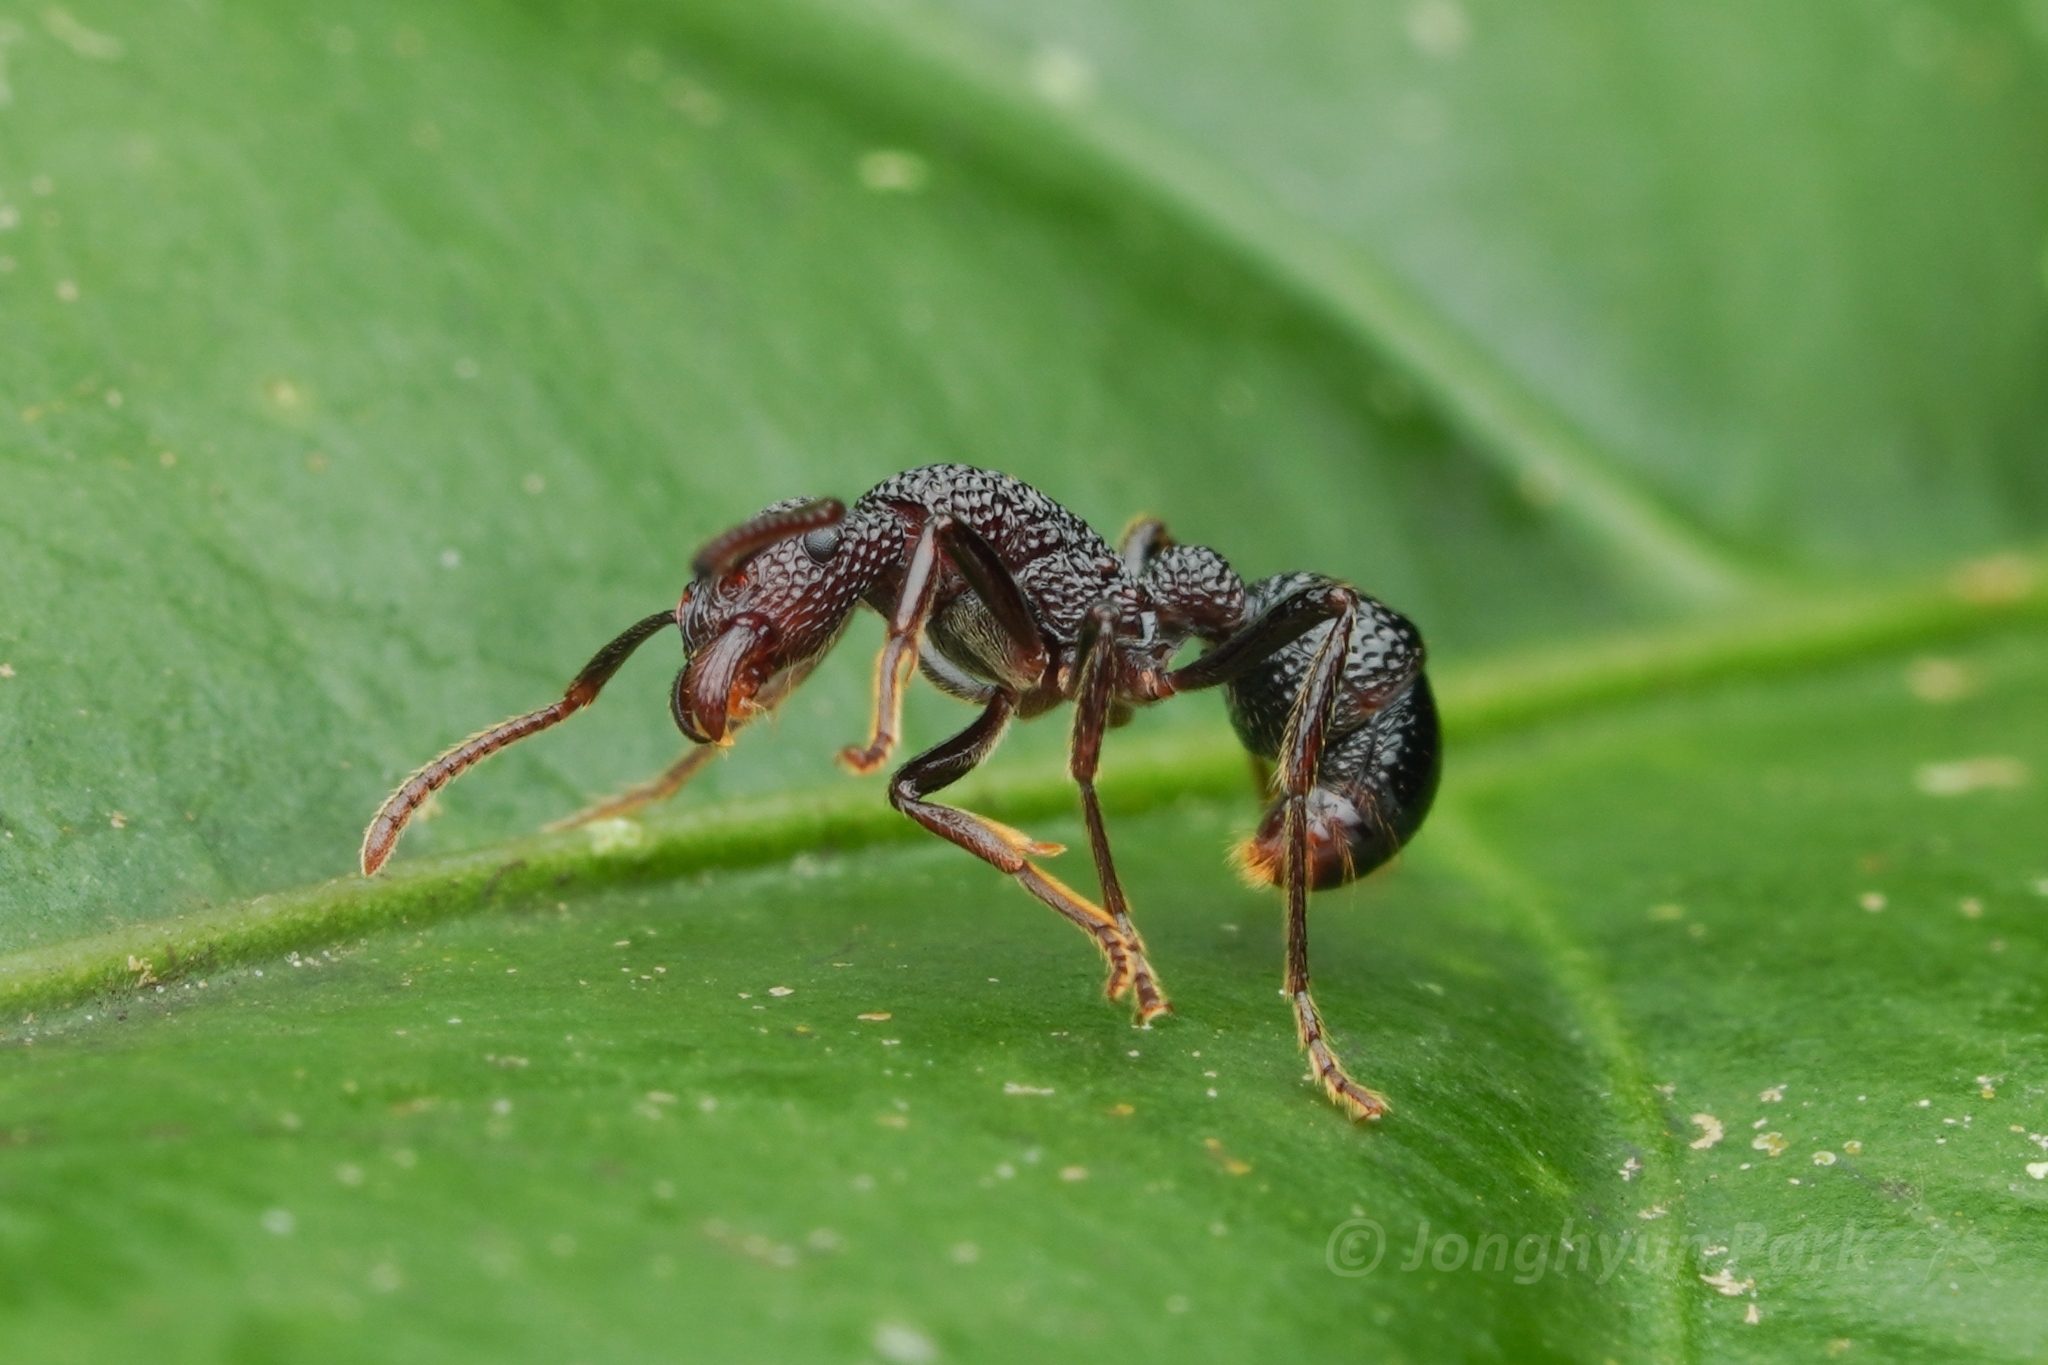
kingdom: Animalia
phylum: Arthropoda
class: Insecta
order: Hymenoptera
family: Formicidae
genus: Stictoponera
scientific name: Stictoponera
